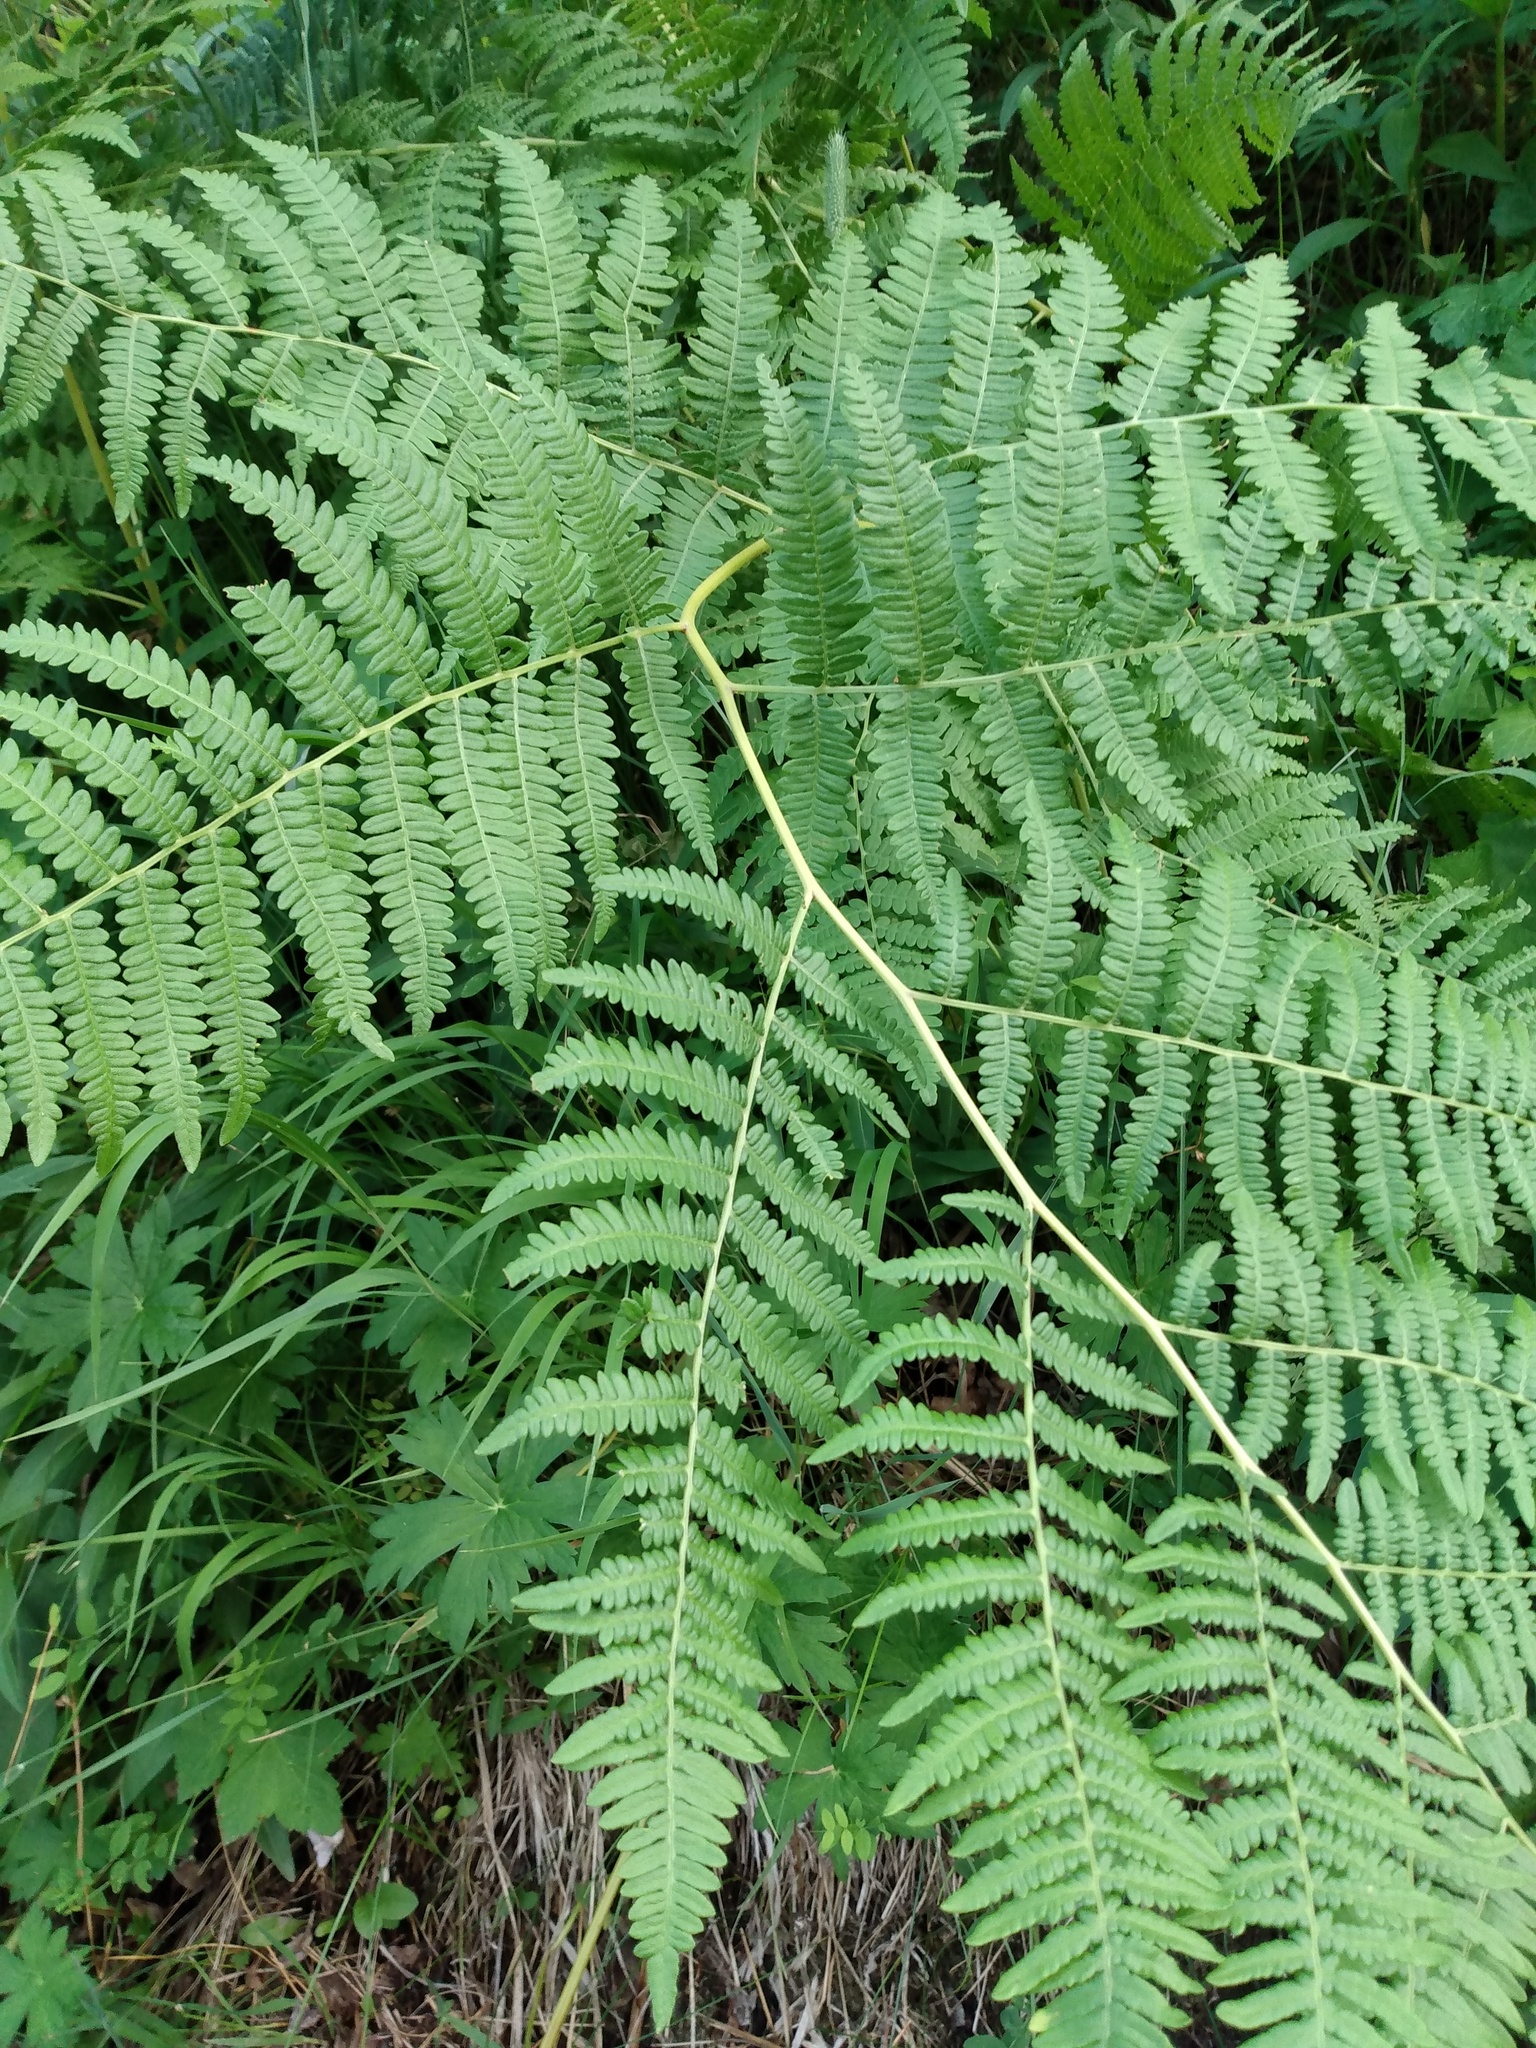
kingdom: Plantae
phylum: Tracheophyta
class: Polypodiopsida
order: Polypodiales
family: Dennstaedtiaceae
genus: Pteridium
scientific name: Pteridium aquilinum
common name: Bracken
